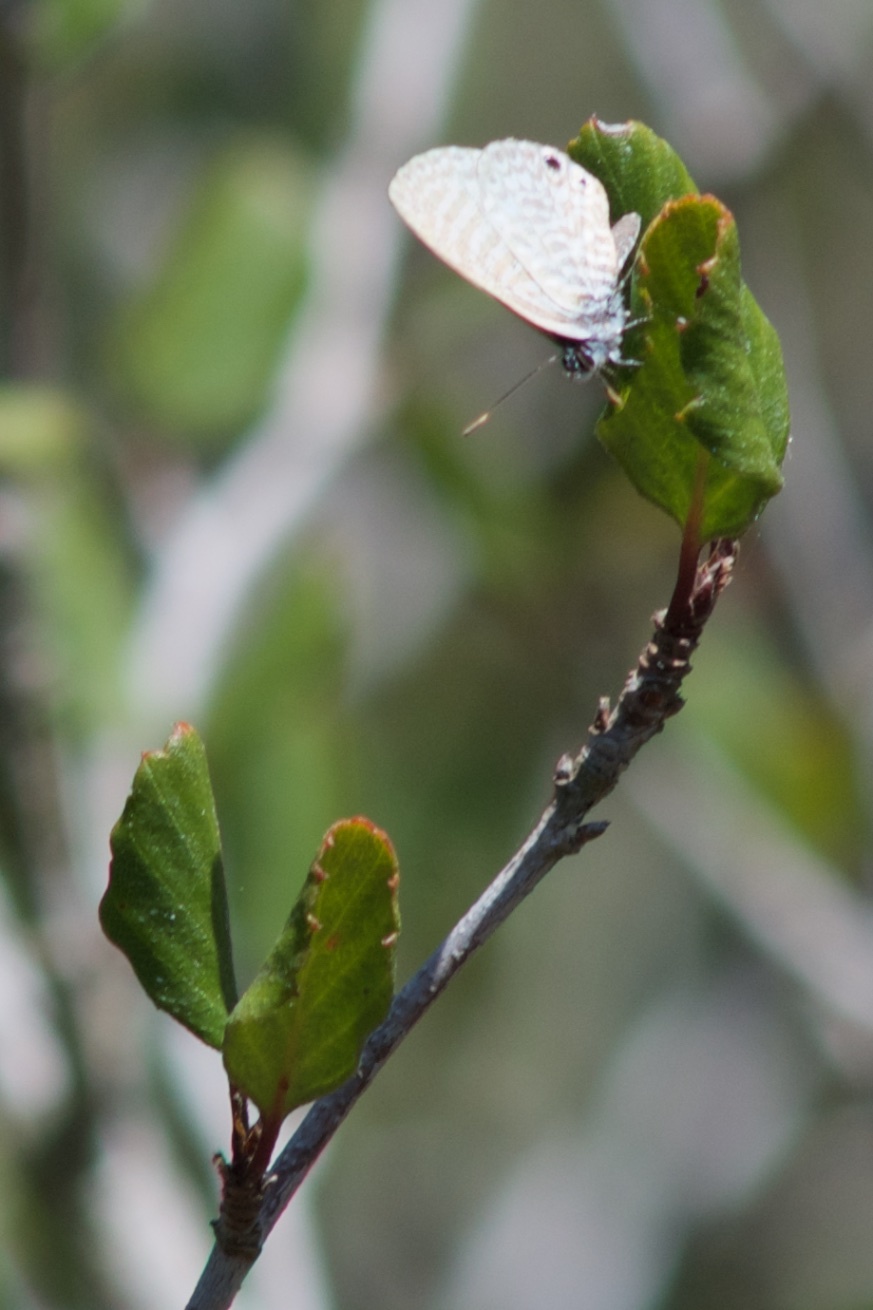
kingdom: Animalia
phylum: Arthropoda
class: Insecta
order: Lepidoptera
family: Lycaenidae
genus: Leptotes
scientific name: Leptotes marina
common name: Marine blue
